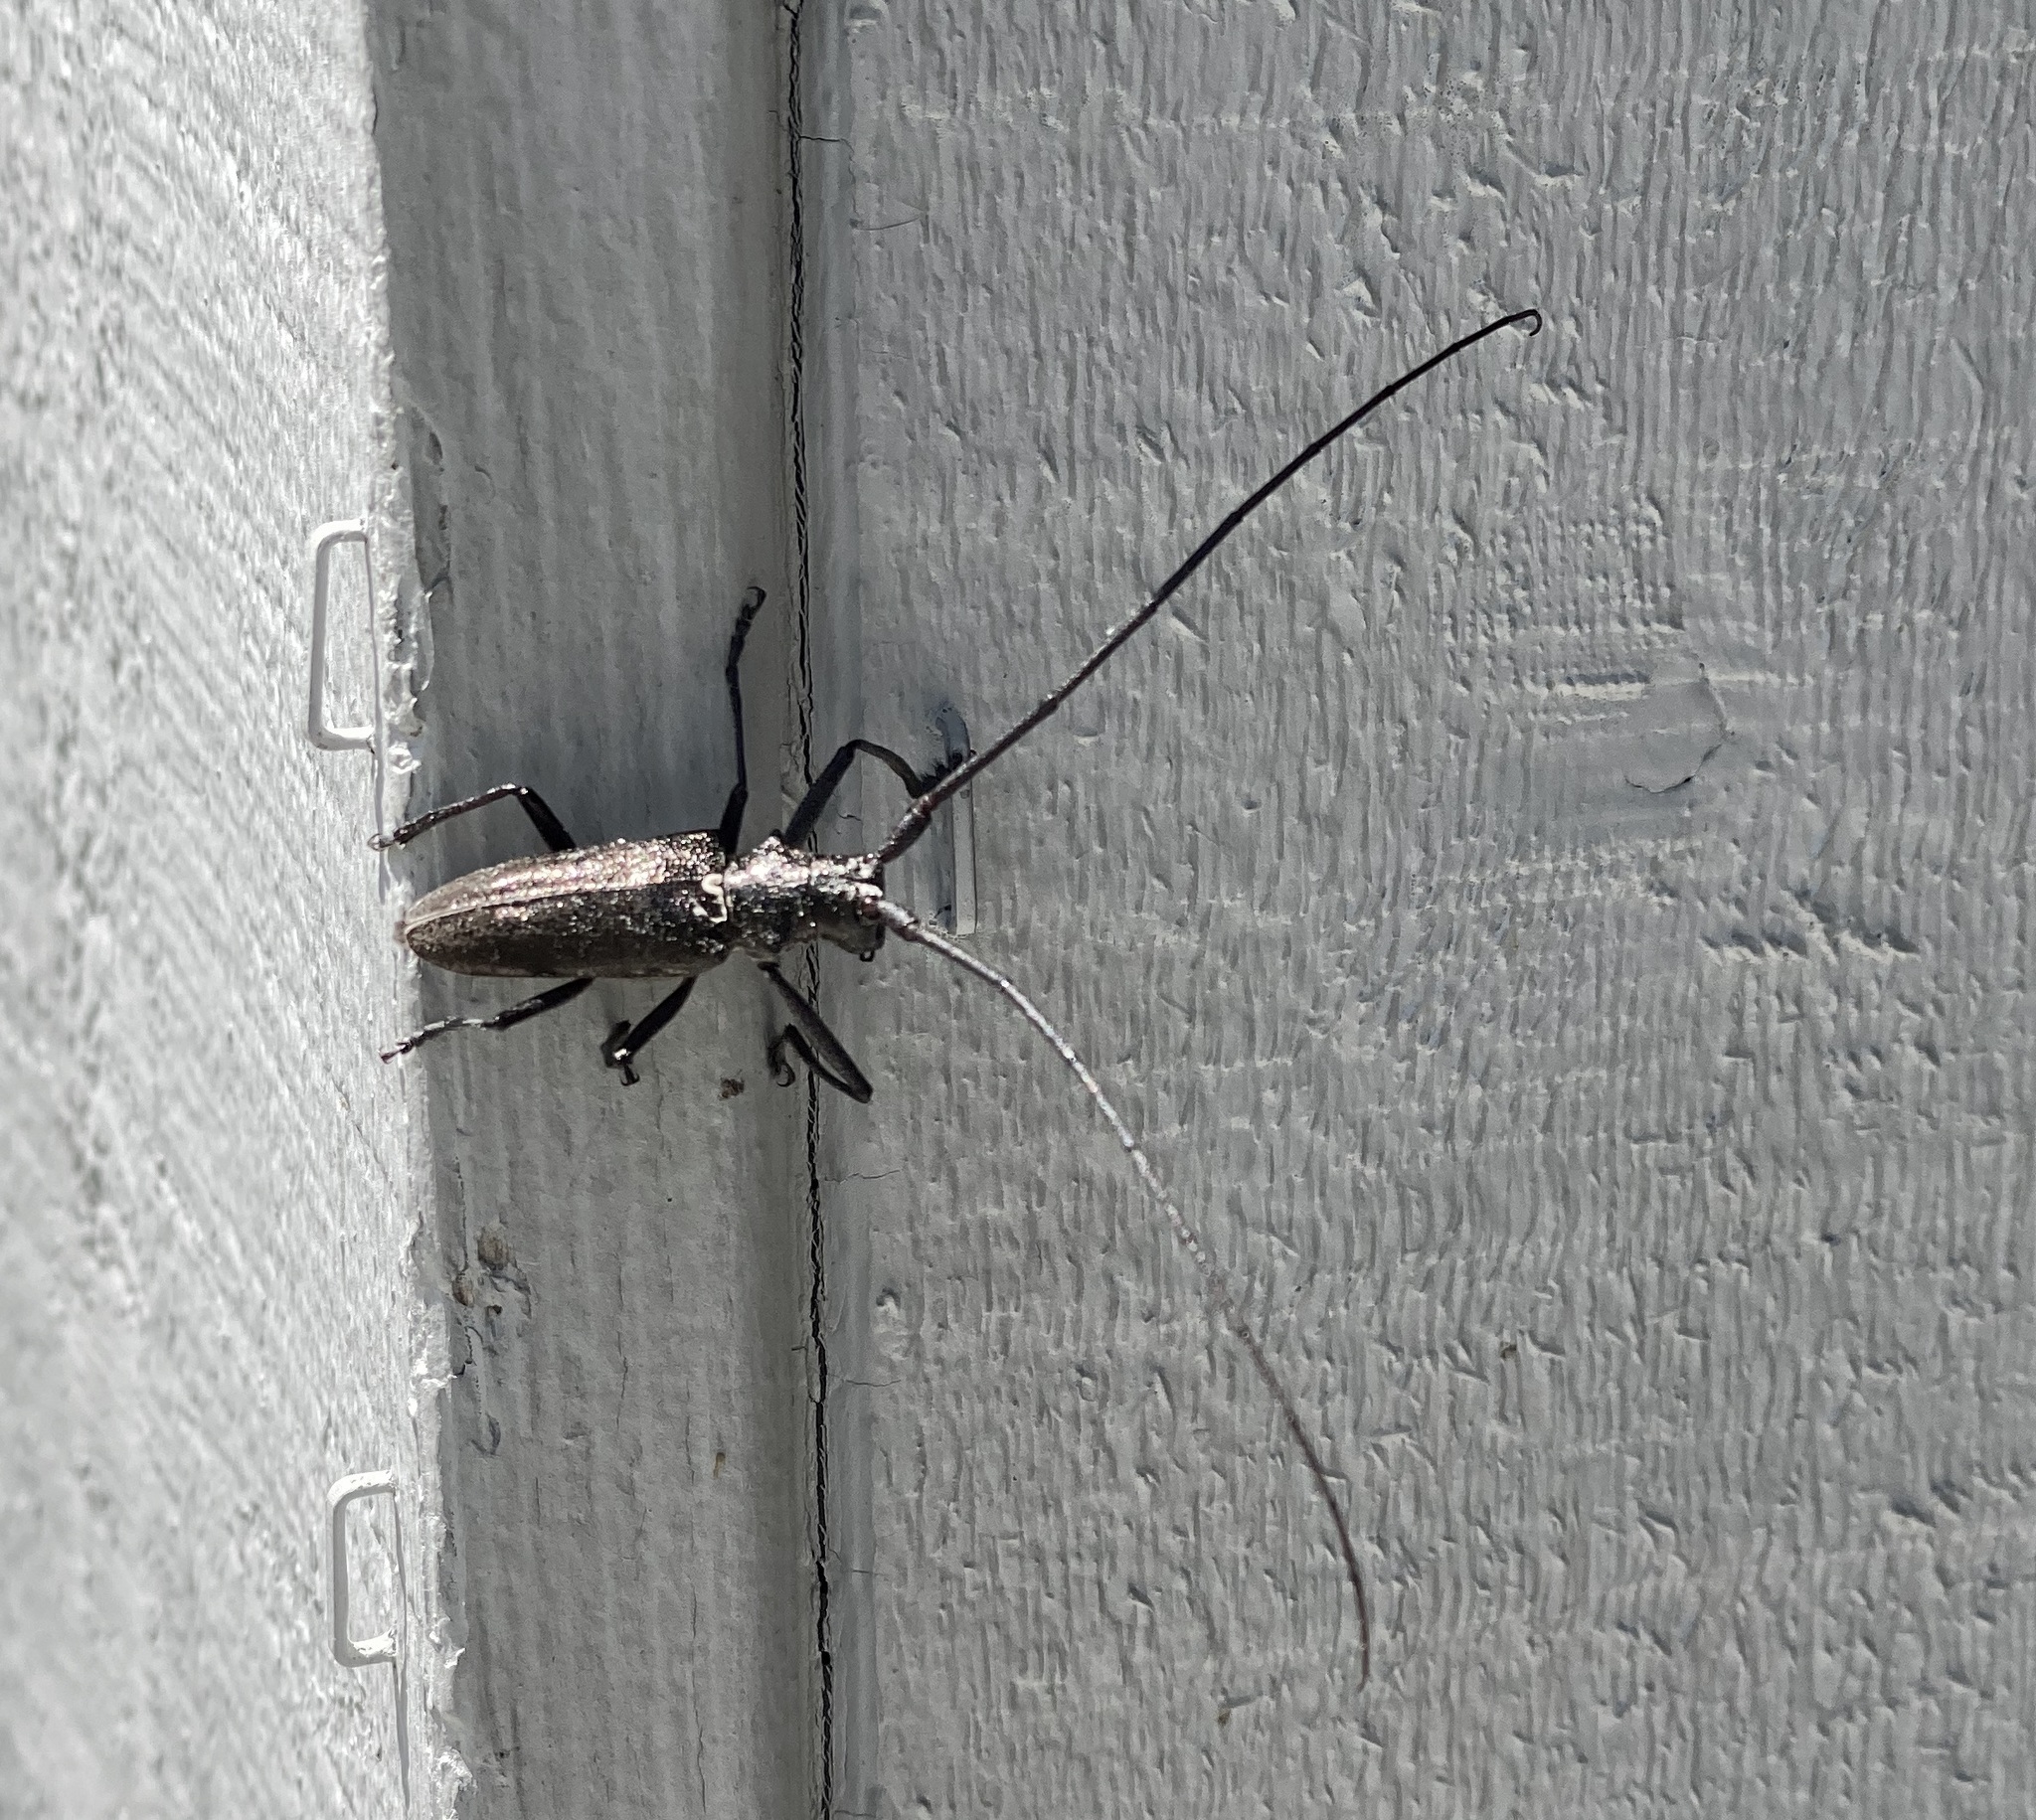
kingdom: Animalia
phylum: Arthropoda
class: Insecta
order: Coleoptera
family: Cerambycidae
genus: Monochamus
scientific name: Monochamus scutellatus
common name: White-spotted sawyer beetle
